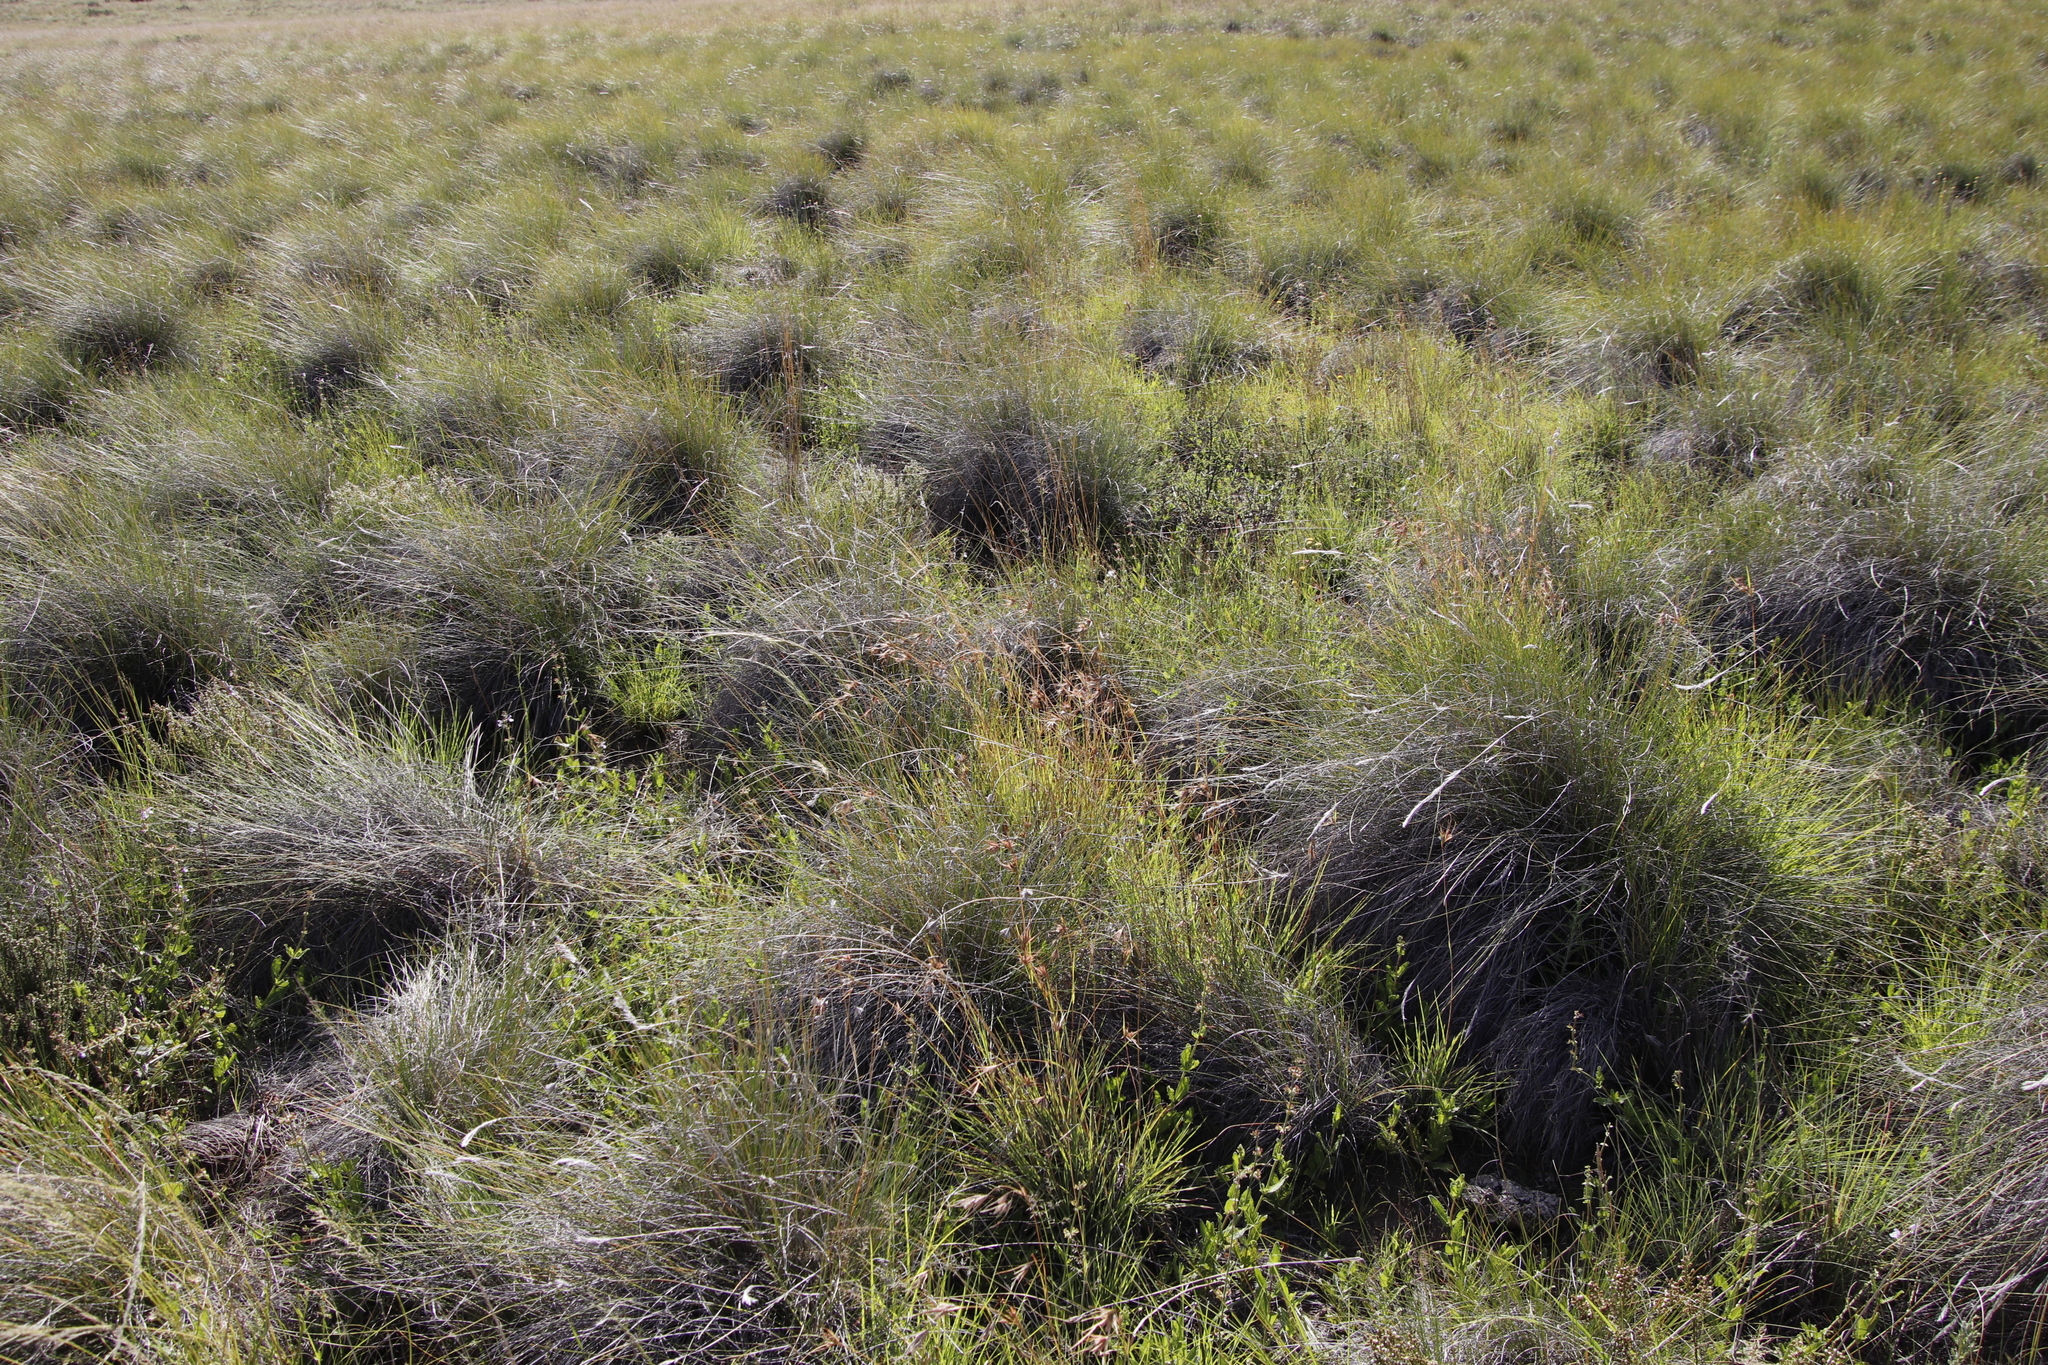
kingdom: Plantae
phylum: Tracheophyta
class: Liliopsida
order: Poales
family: Poaceae
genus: Themeda
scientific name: Themeda triandra
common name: Kangaroo grass
